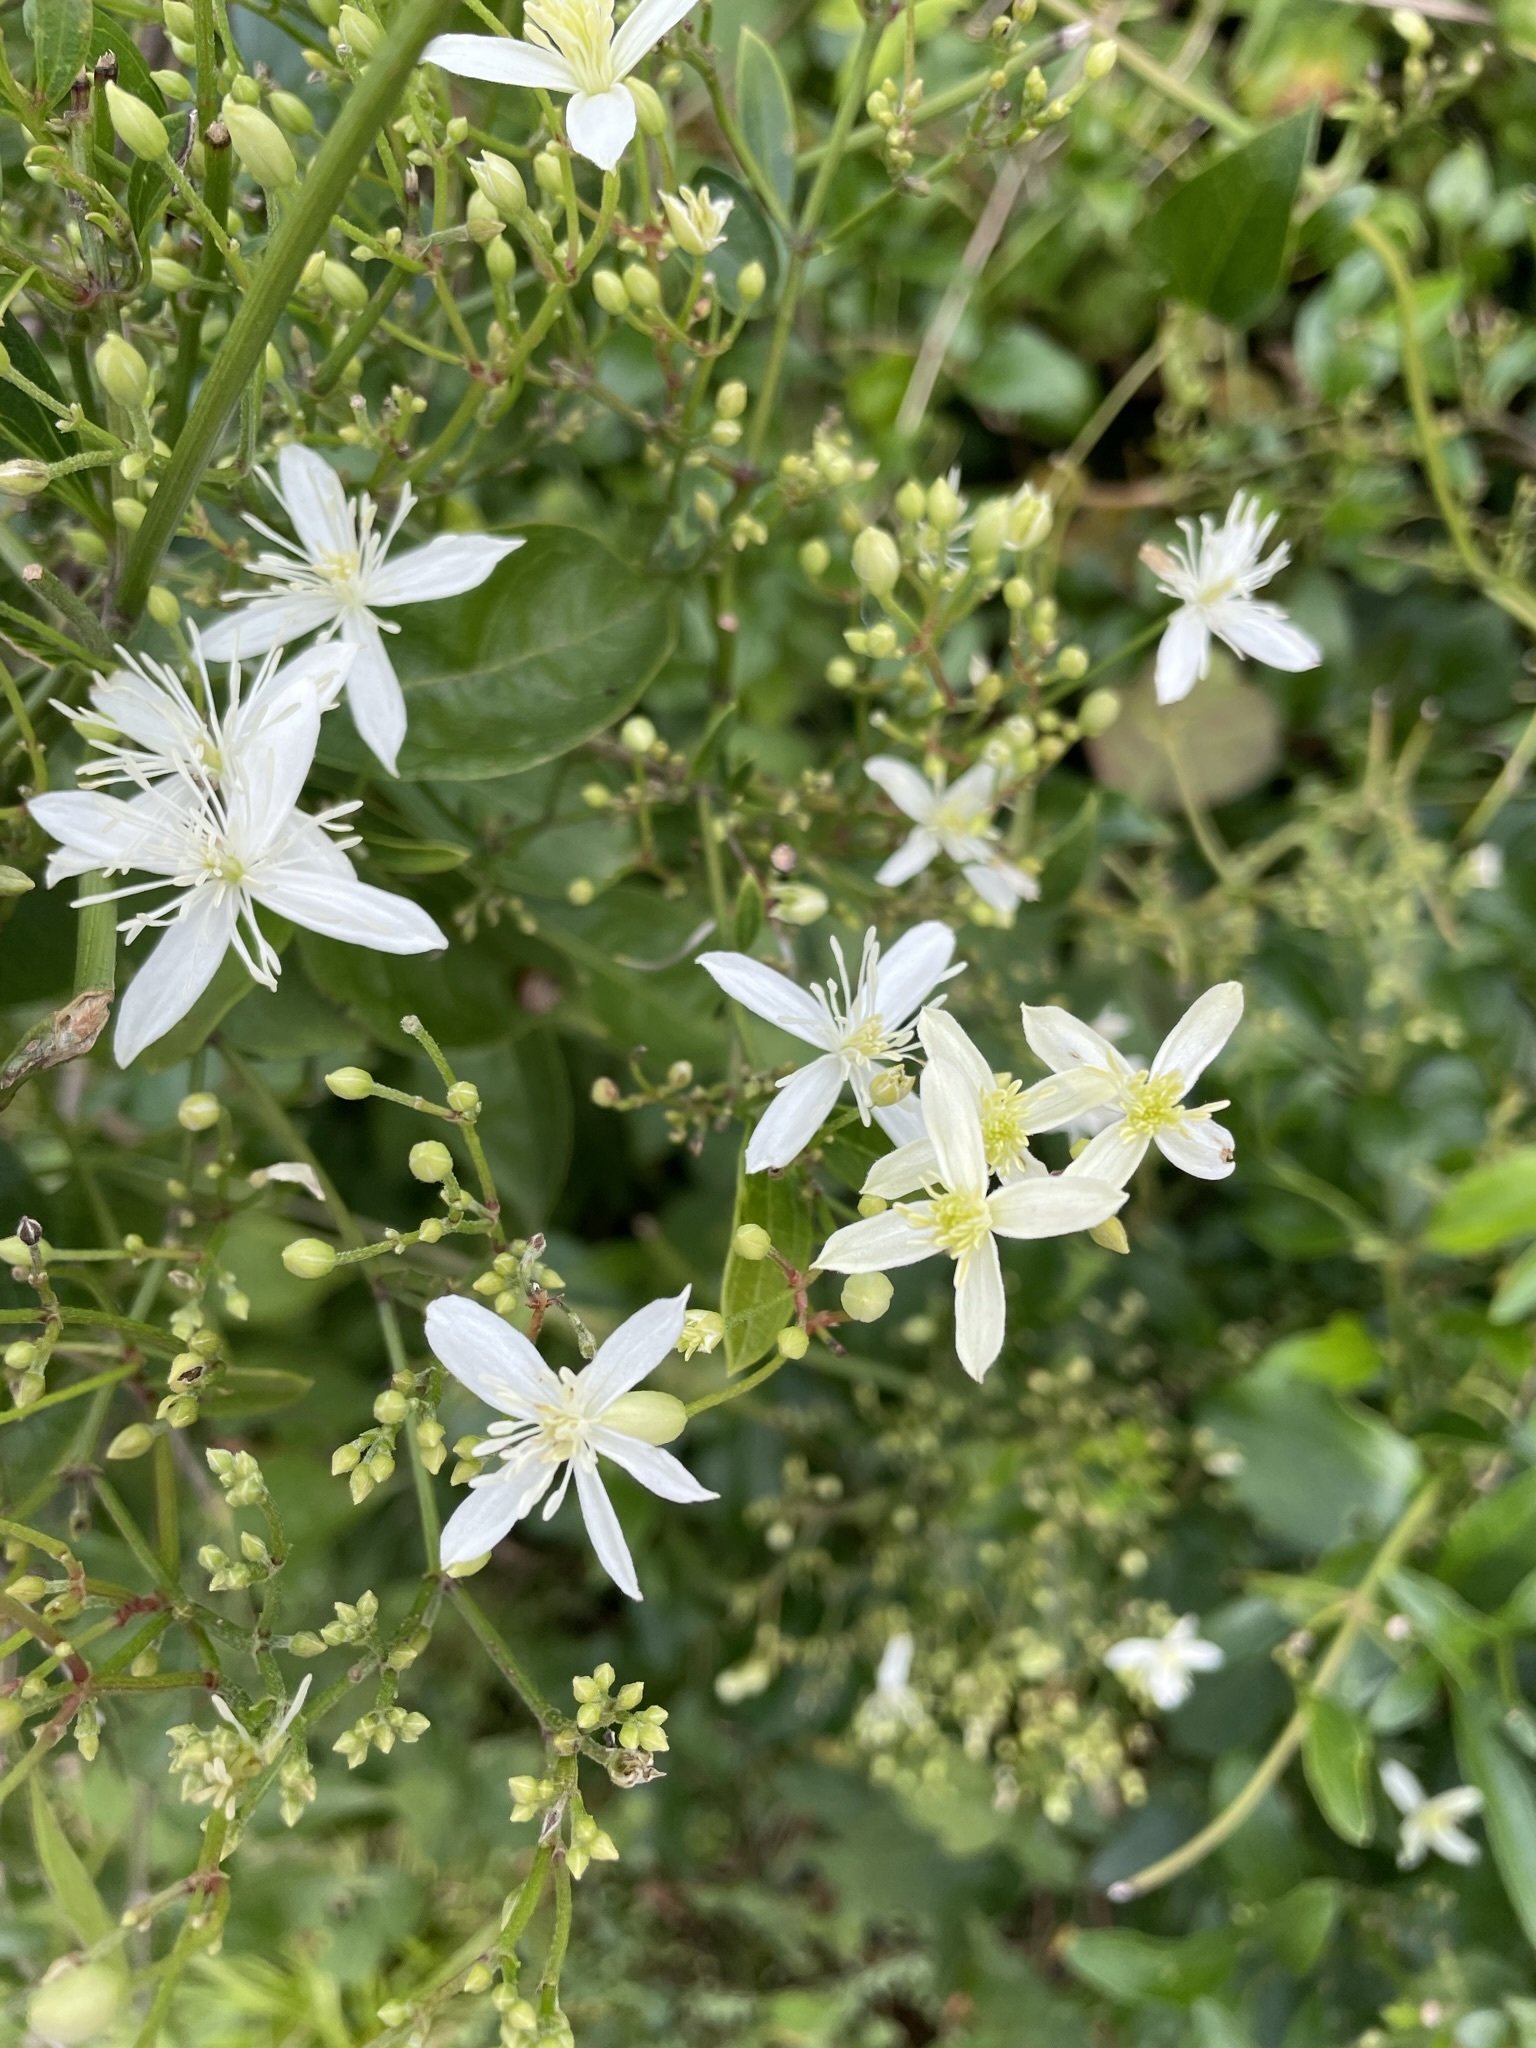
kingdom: Plantae
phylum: Tracheophyta
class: Magnoliopsida
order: Ranunculales
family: Ranunculaceae
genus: Clematis
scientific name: Clematis terniflora
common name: Sweet autumn clematis
